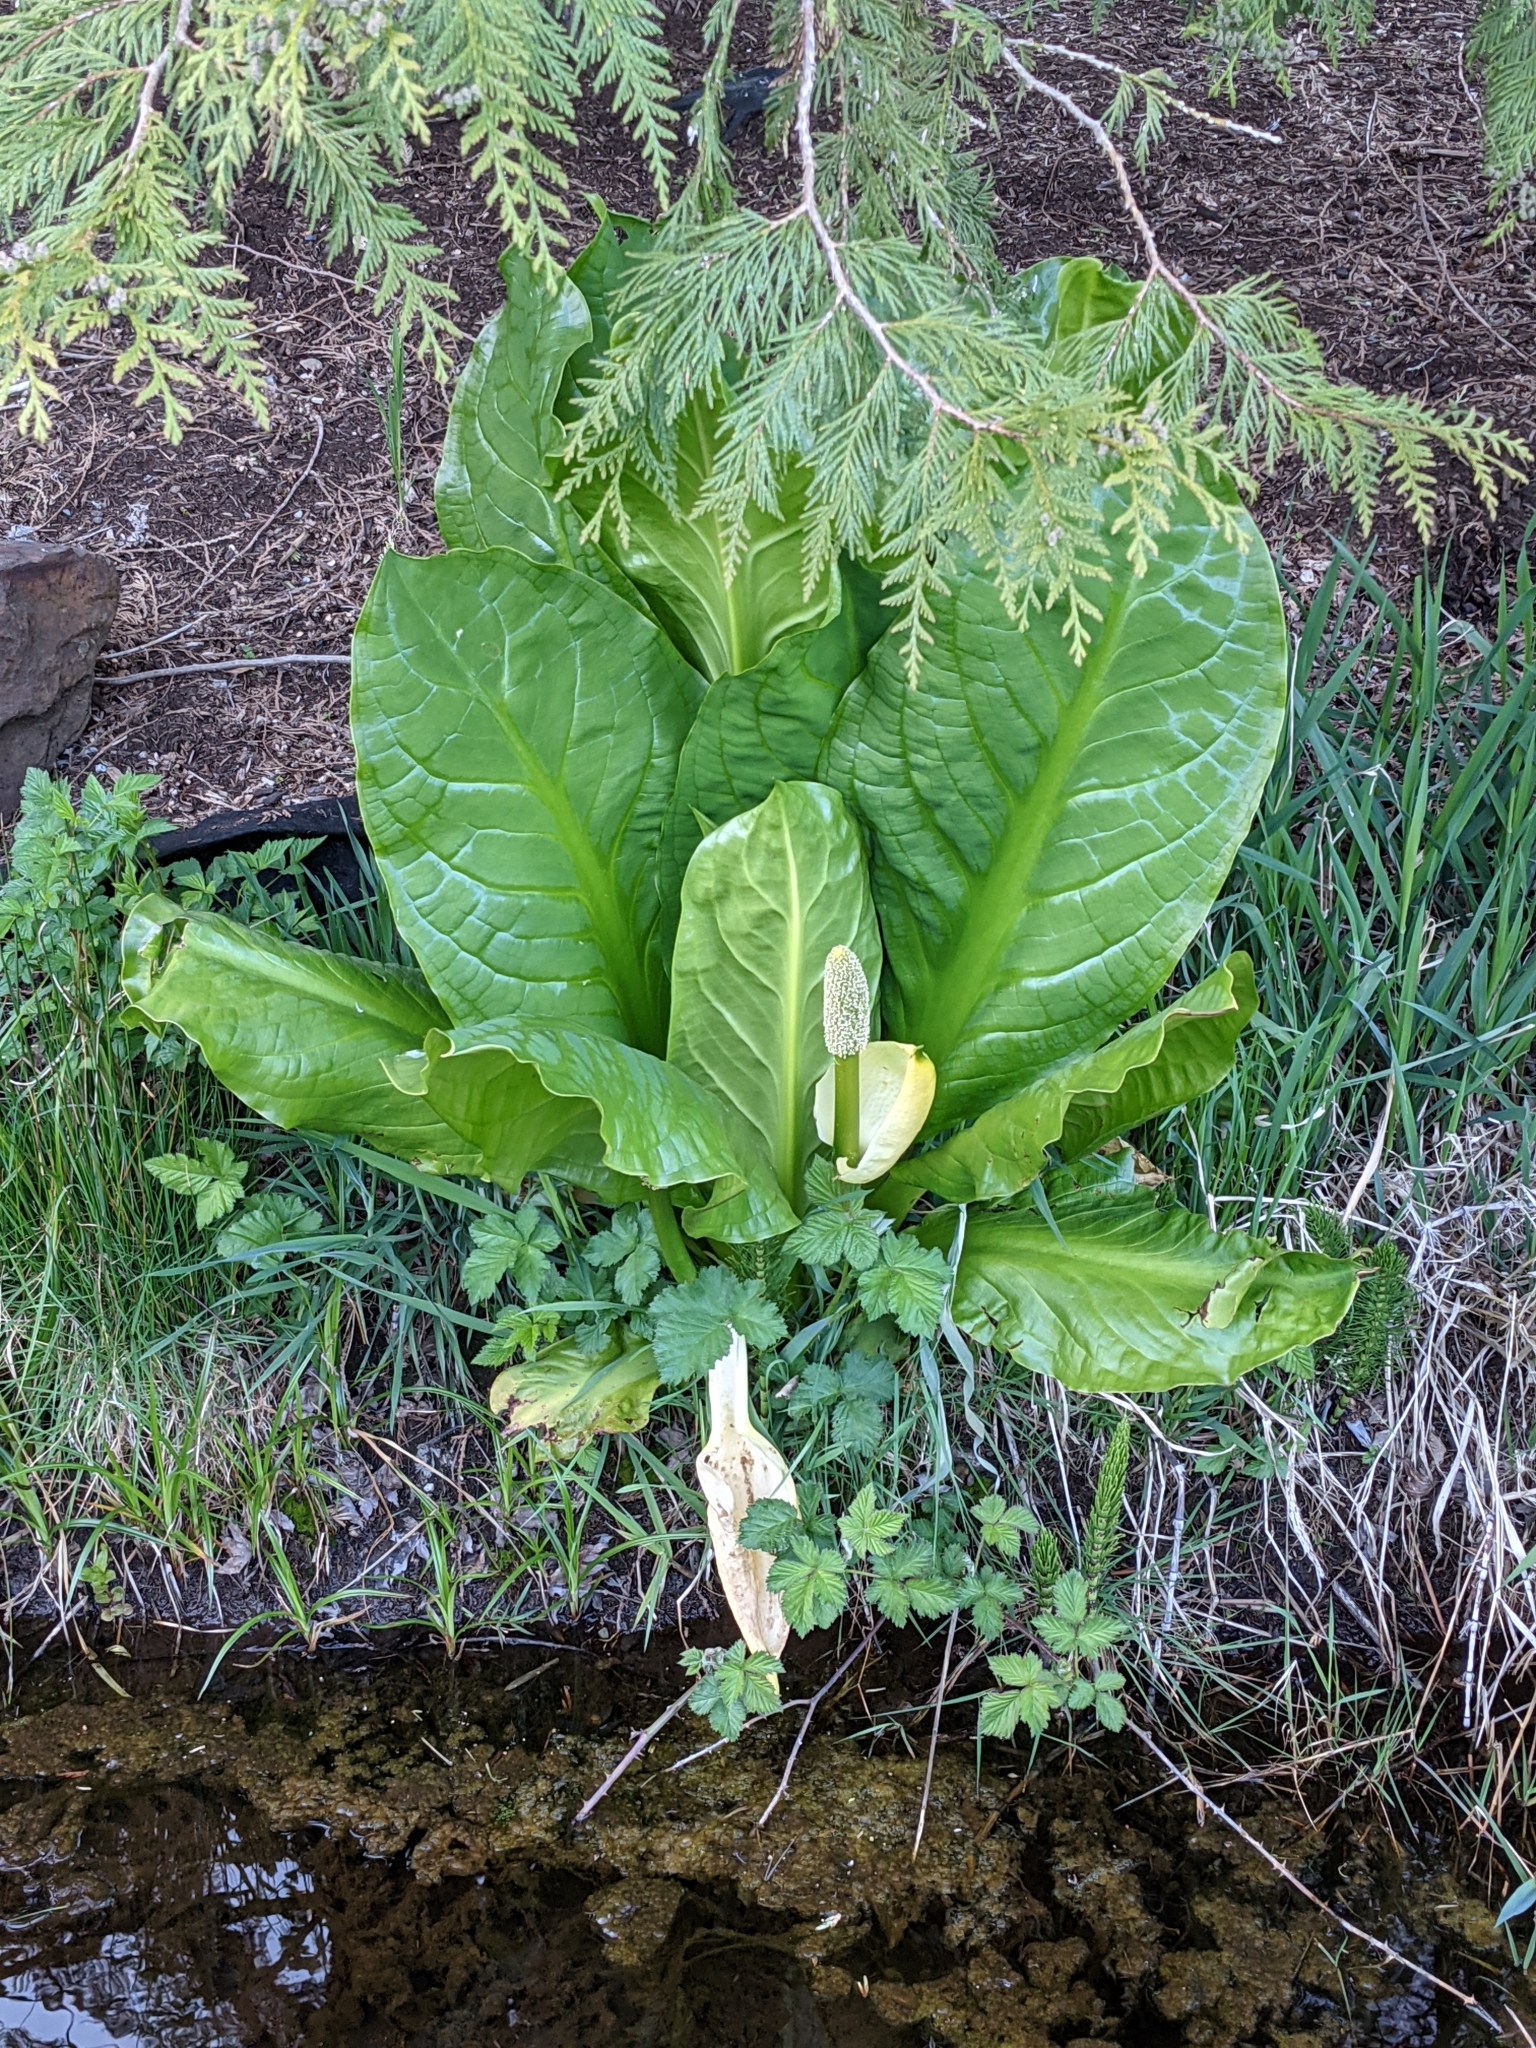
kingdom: Plantae
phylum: Tracheophyta
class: Liliopsida
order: Alismatales
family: Araceae
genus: Lysichiton
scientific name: Lysichiton americanus
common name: American skunk cabbage
